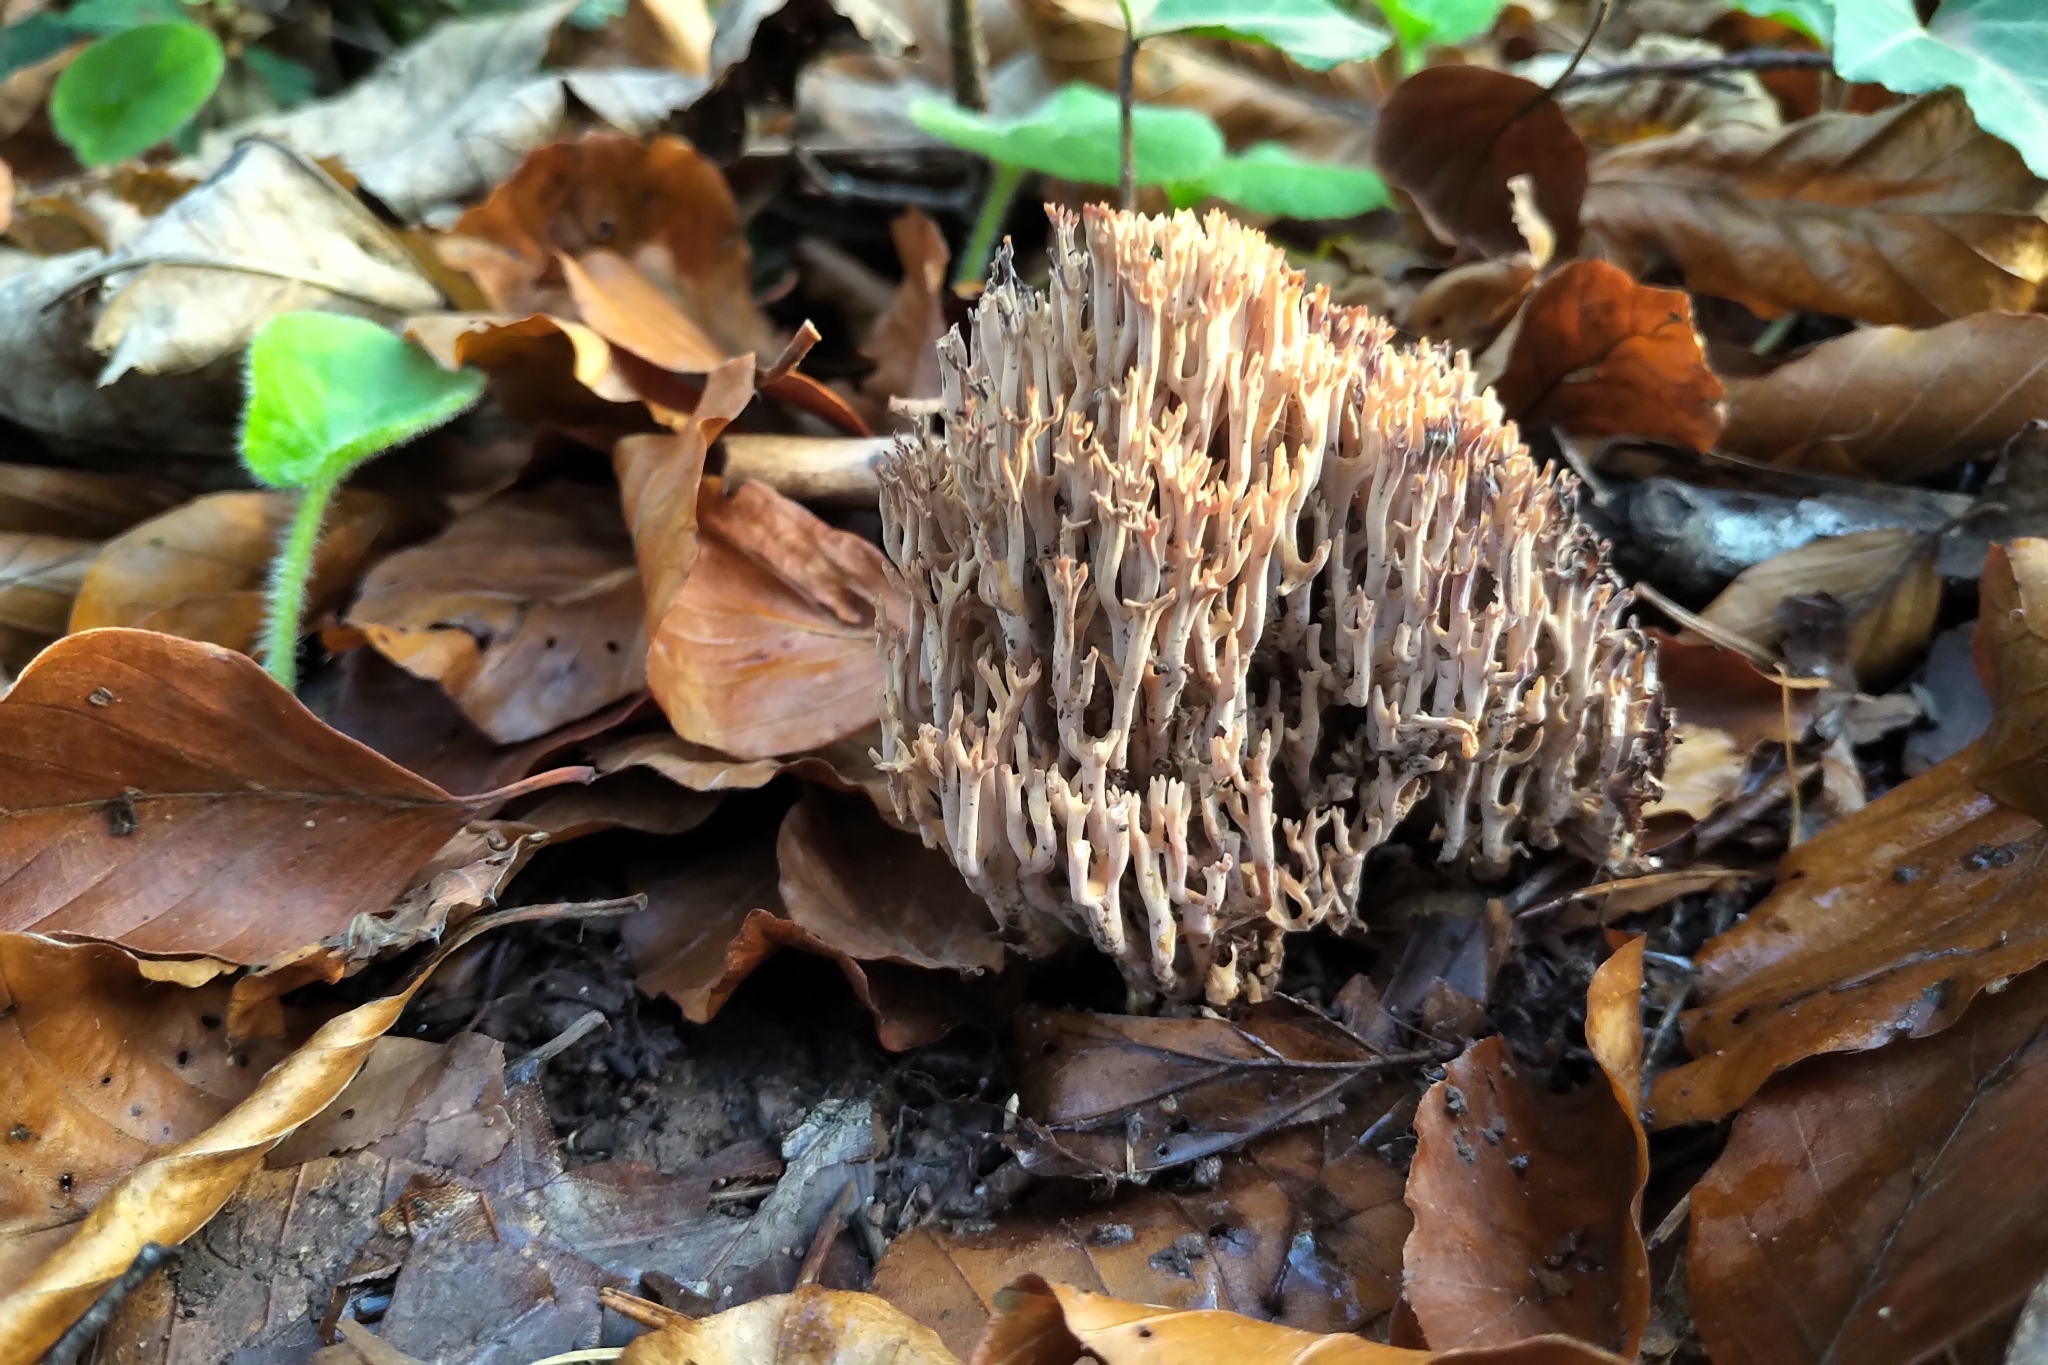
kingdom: Fungi
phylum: Basidiomycota
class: Agaricomycetes
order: Gomphales
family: Gomphaceae
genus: Ramaria
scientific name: Ramaria stricta
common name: Upright coral
